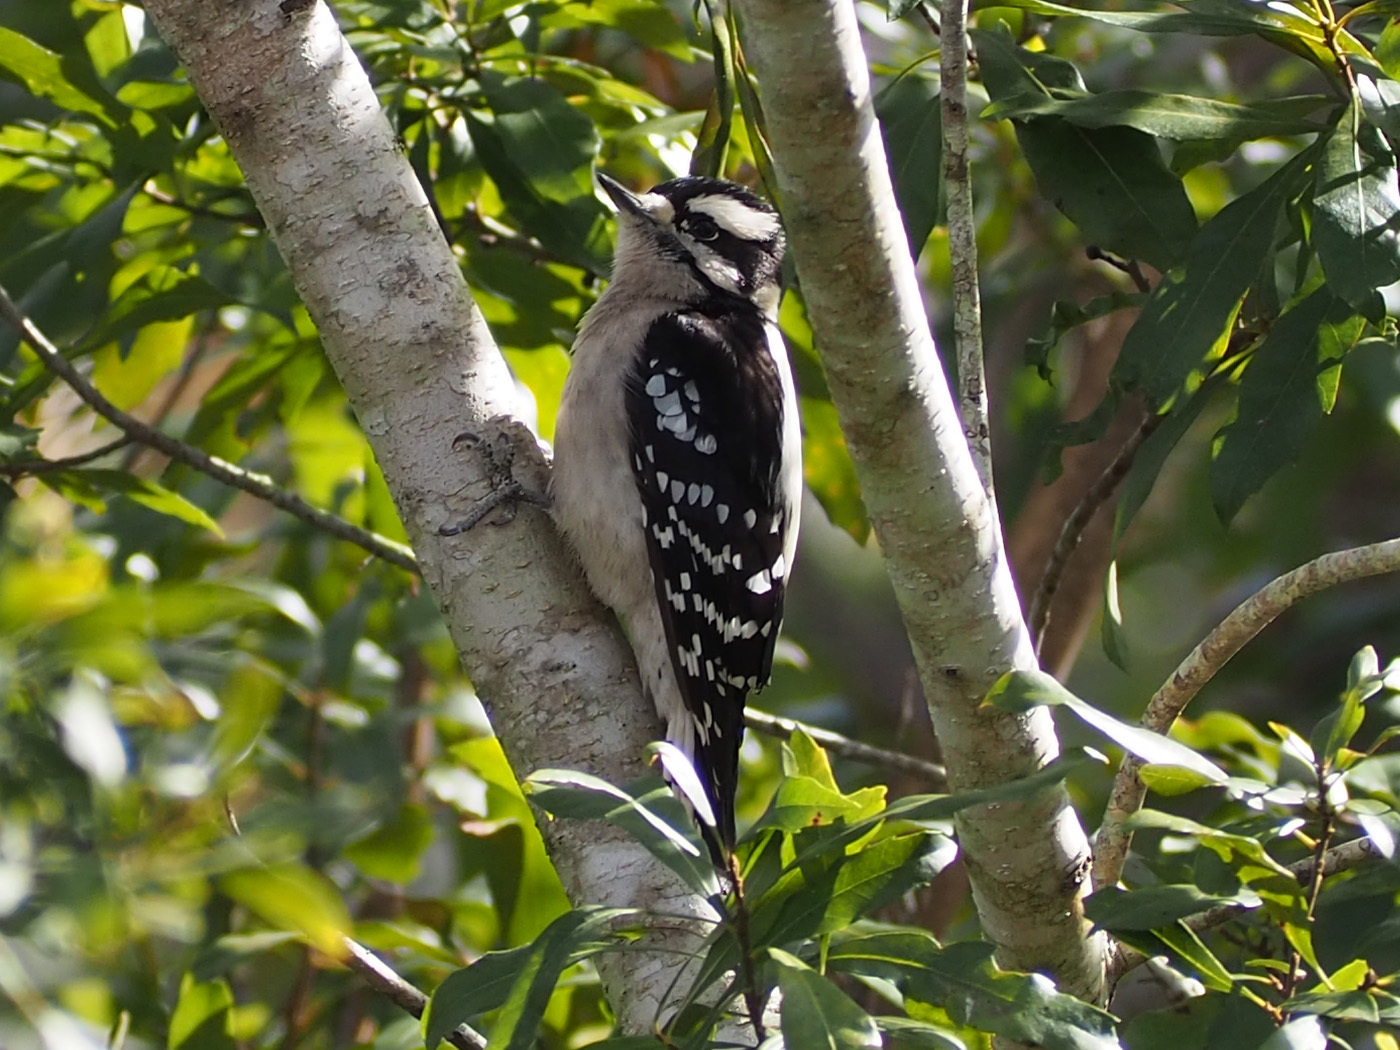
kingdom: Animalia
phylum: Chordata
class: Aves
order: Piciformes
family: Picidae
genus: Dryobates
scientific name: Dryobates pubescens
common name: Downy woodpecker
